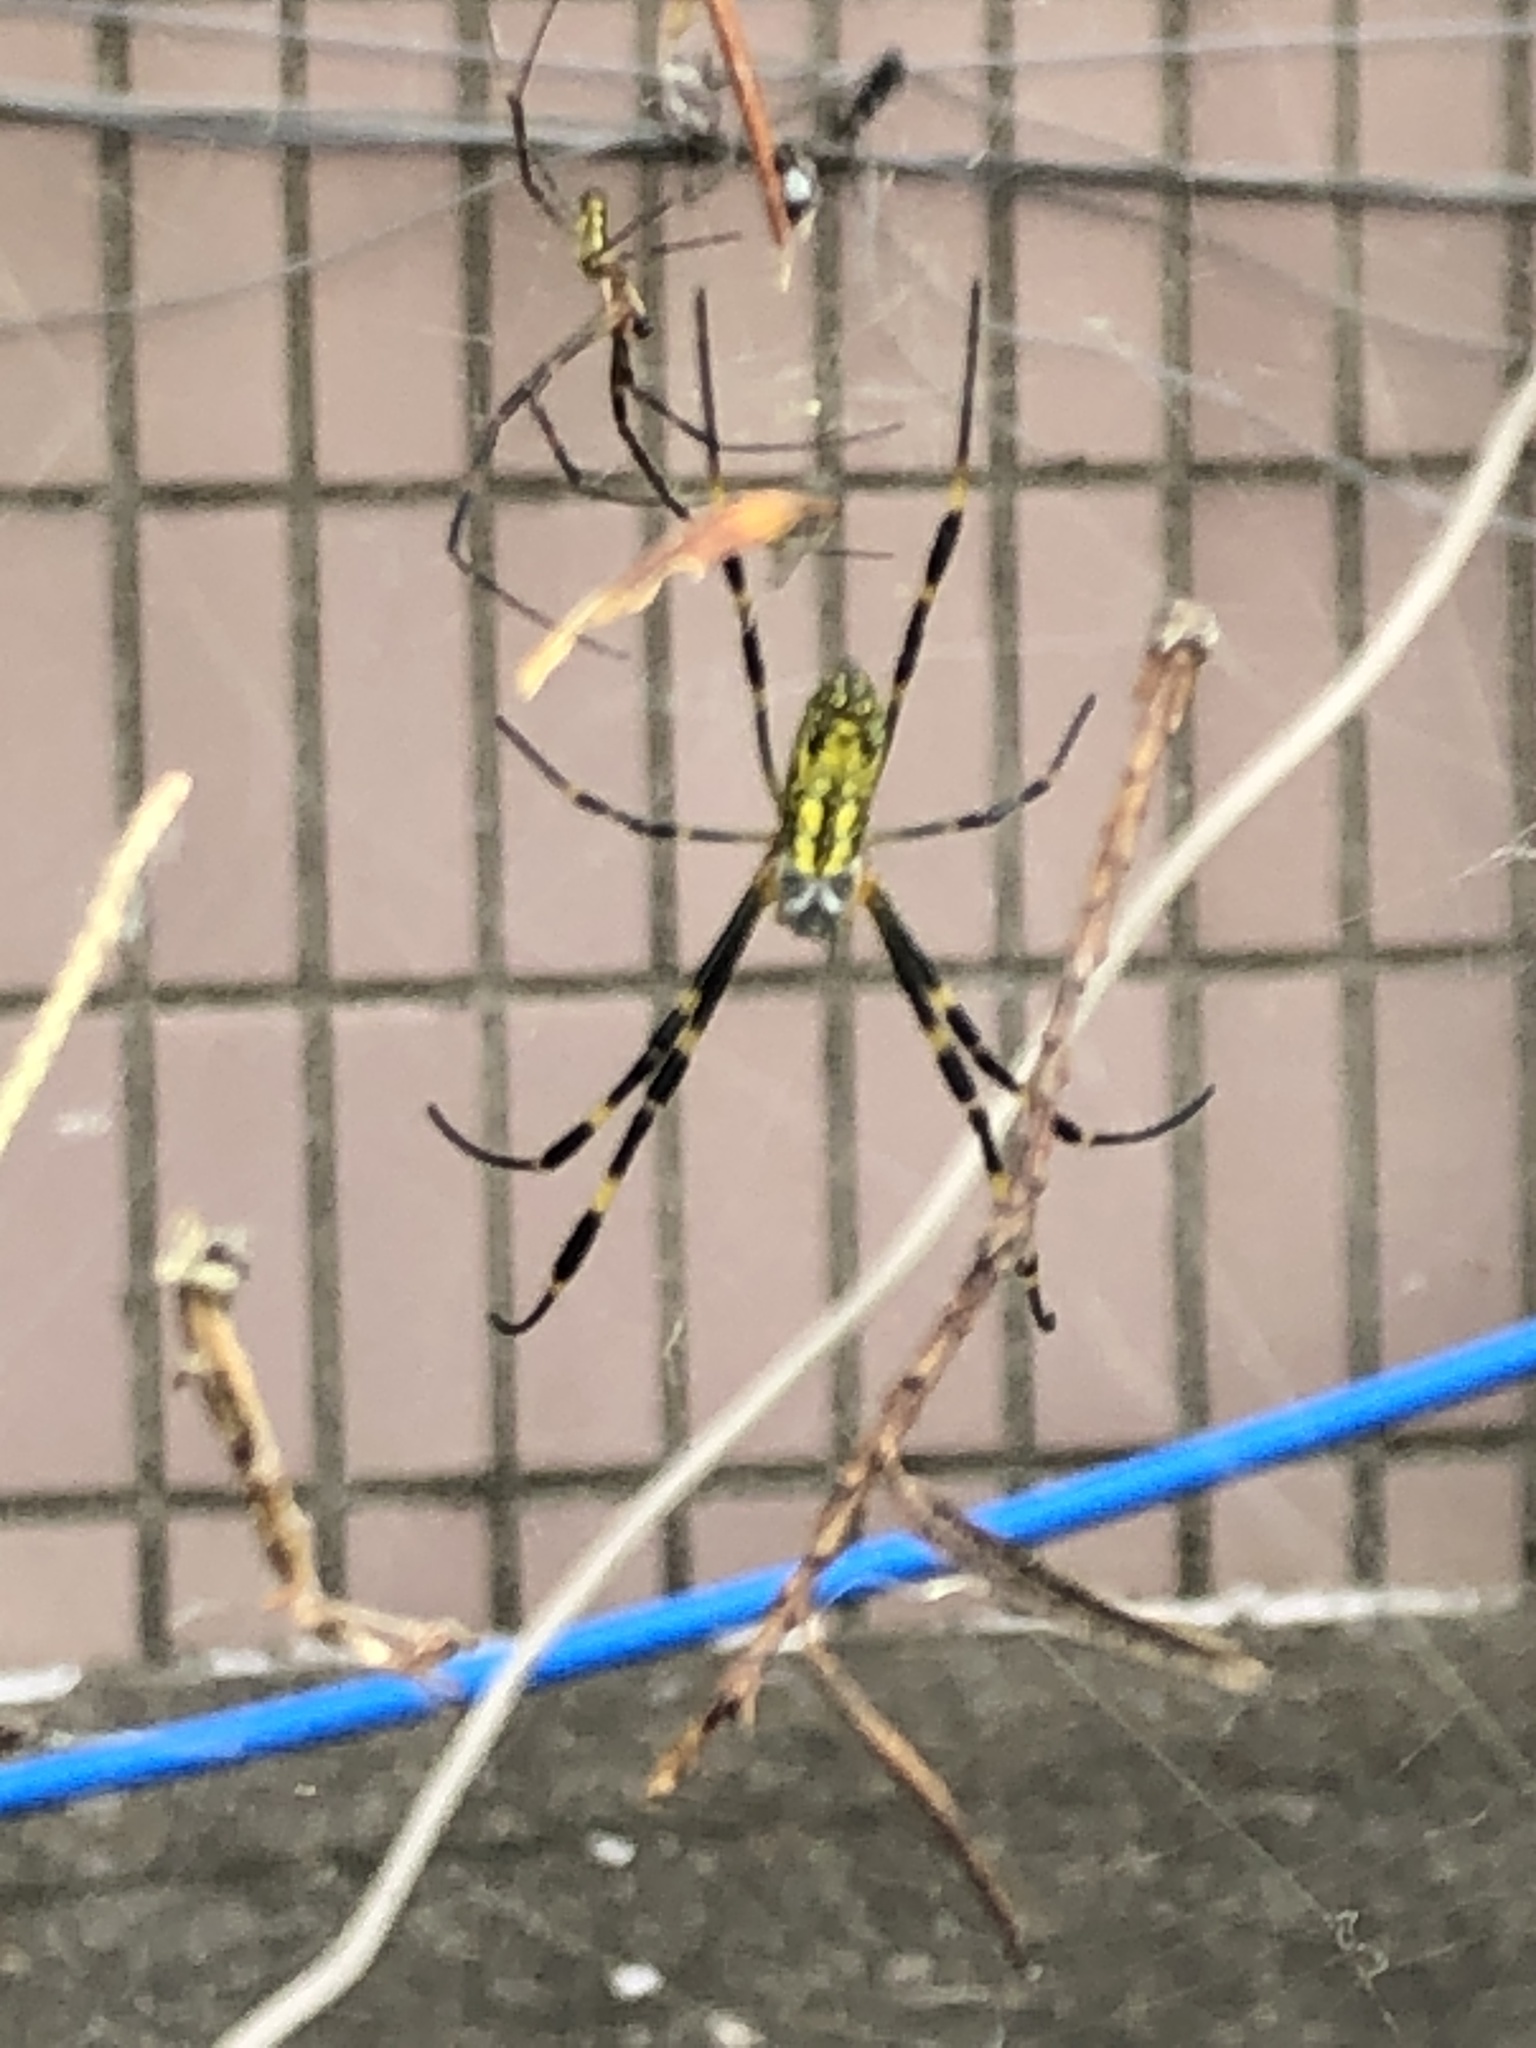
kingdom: Animalia
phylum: Arthropoda
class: Arachnida
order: Araneae
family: Araneidae
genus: Trichonephila
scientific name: Trichonephila clavata
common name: Jorō spider
